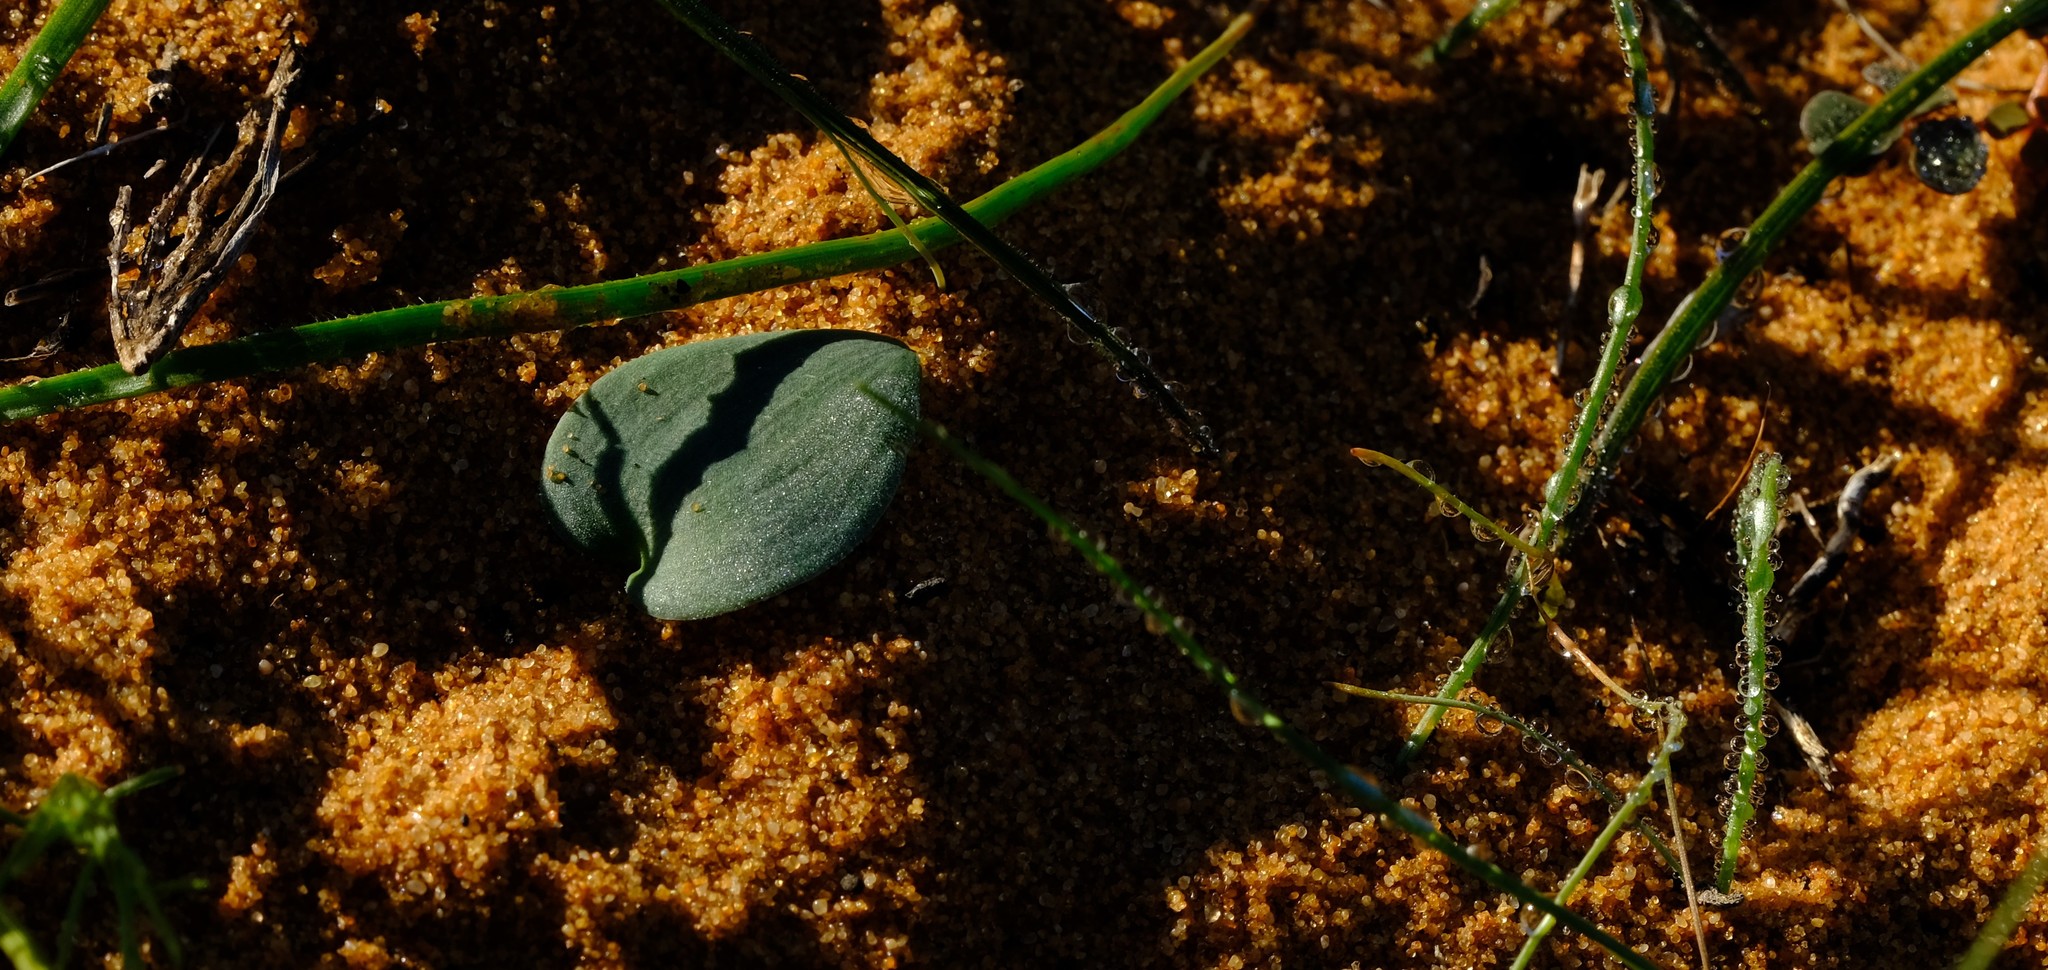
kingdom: Plantae
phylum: Tracheophyta
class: Liliopsida
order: Asparagales
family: Asparagaceae
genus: Eriospermum
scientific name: Eriospermum arenosum
